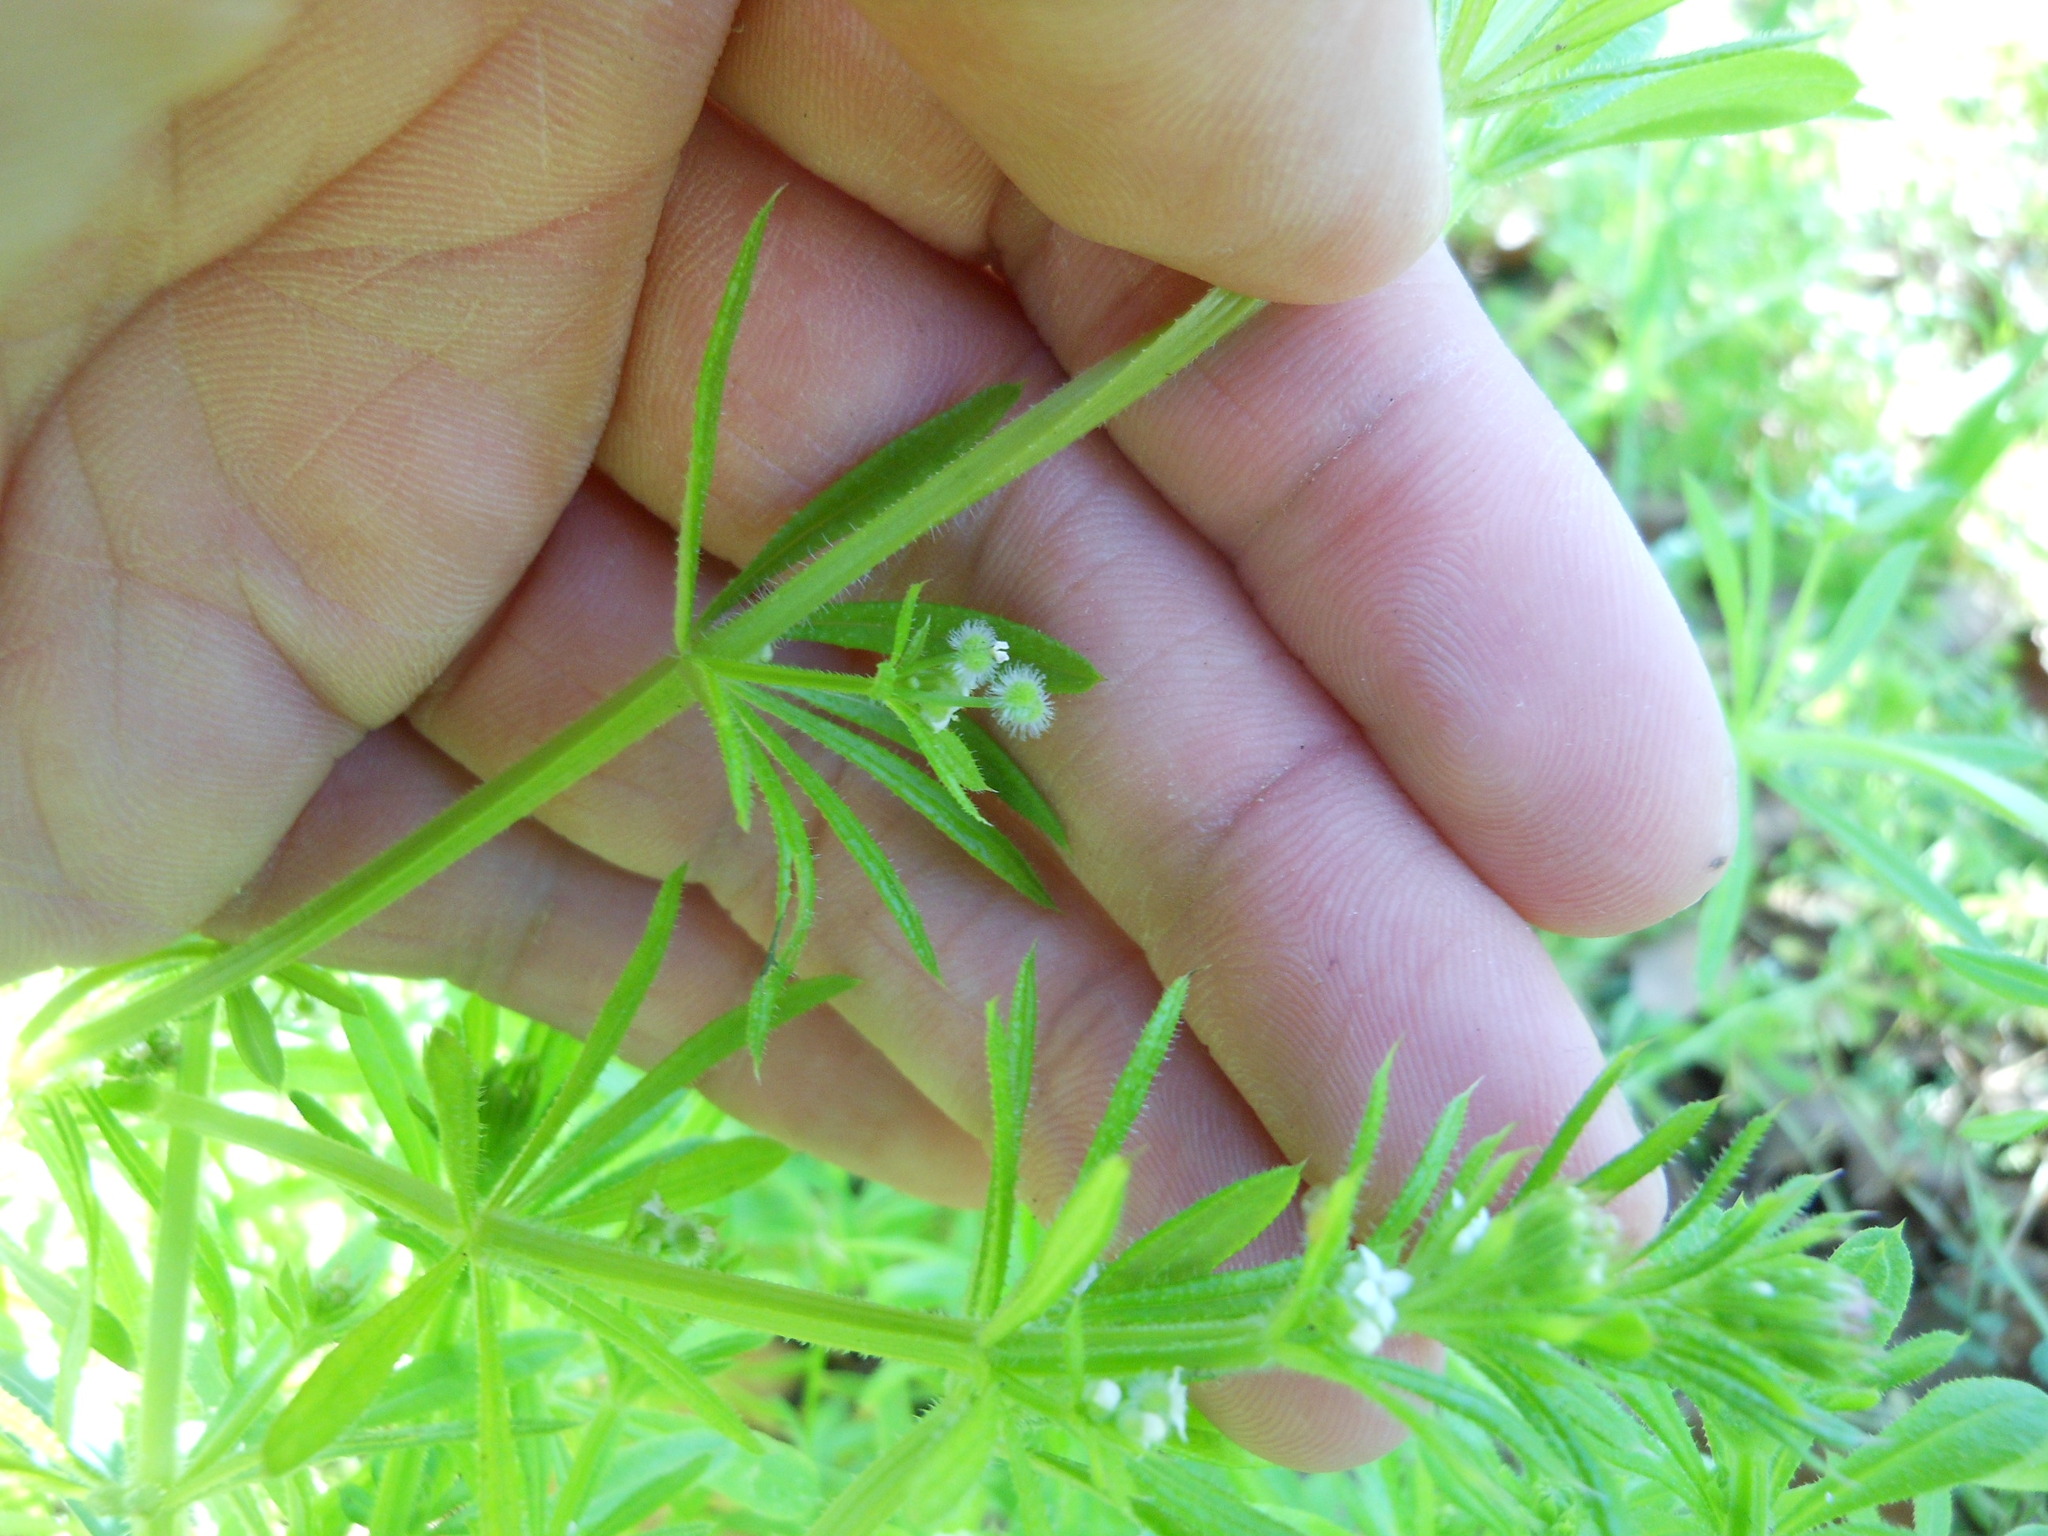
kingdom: Plantae
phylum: Tracheophyta
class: Magnoliopsida
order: Gentianales
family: Rubiaceae
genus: Galium
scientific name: Galium aparine
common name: Cleavers
